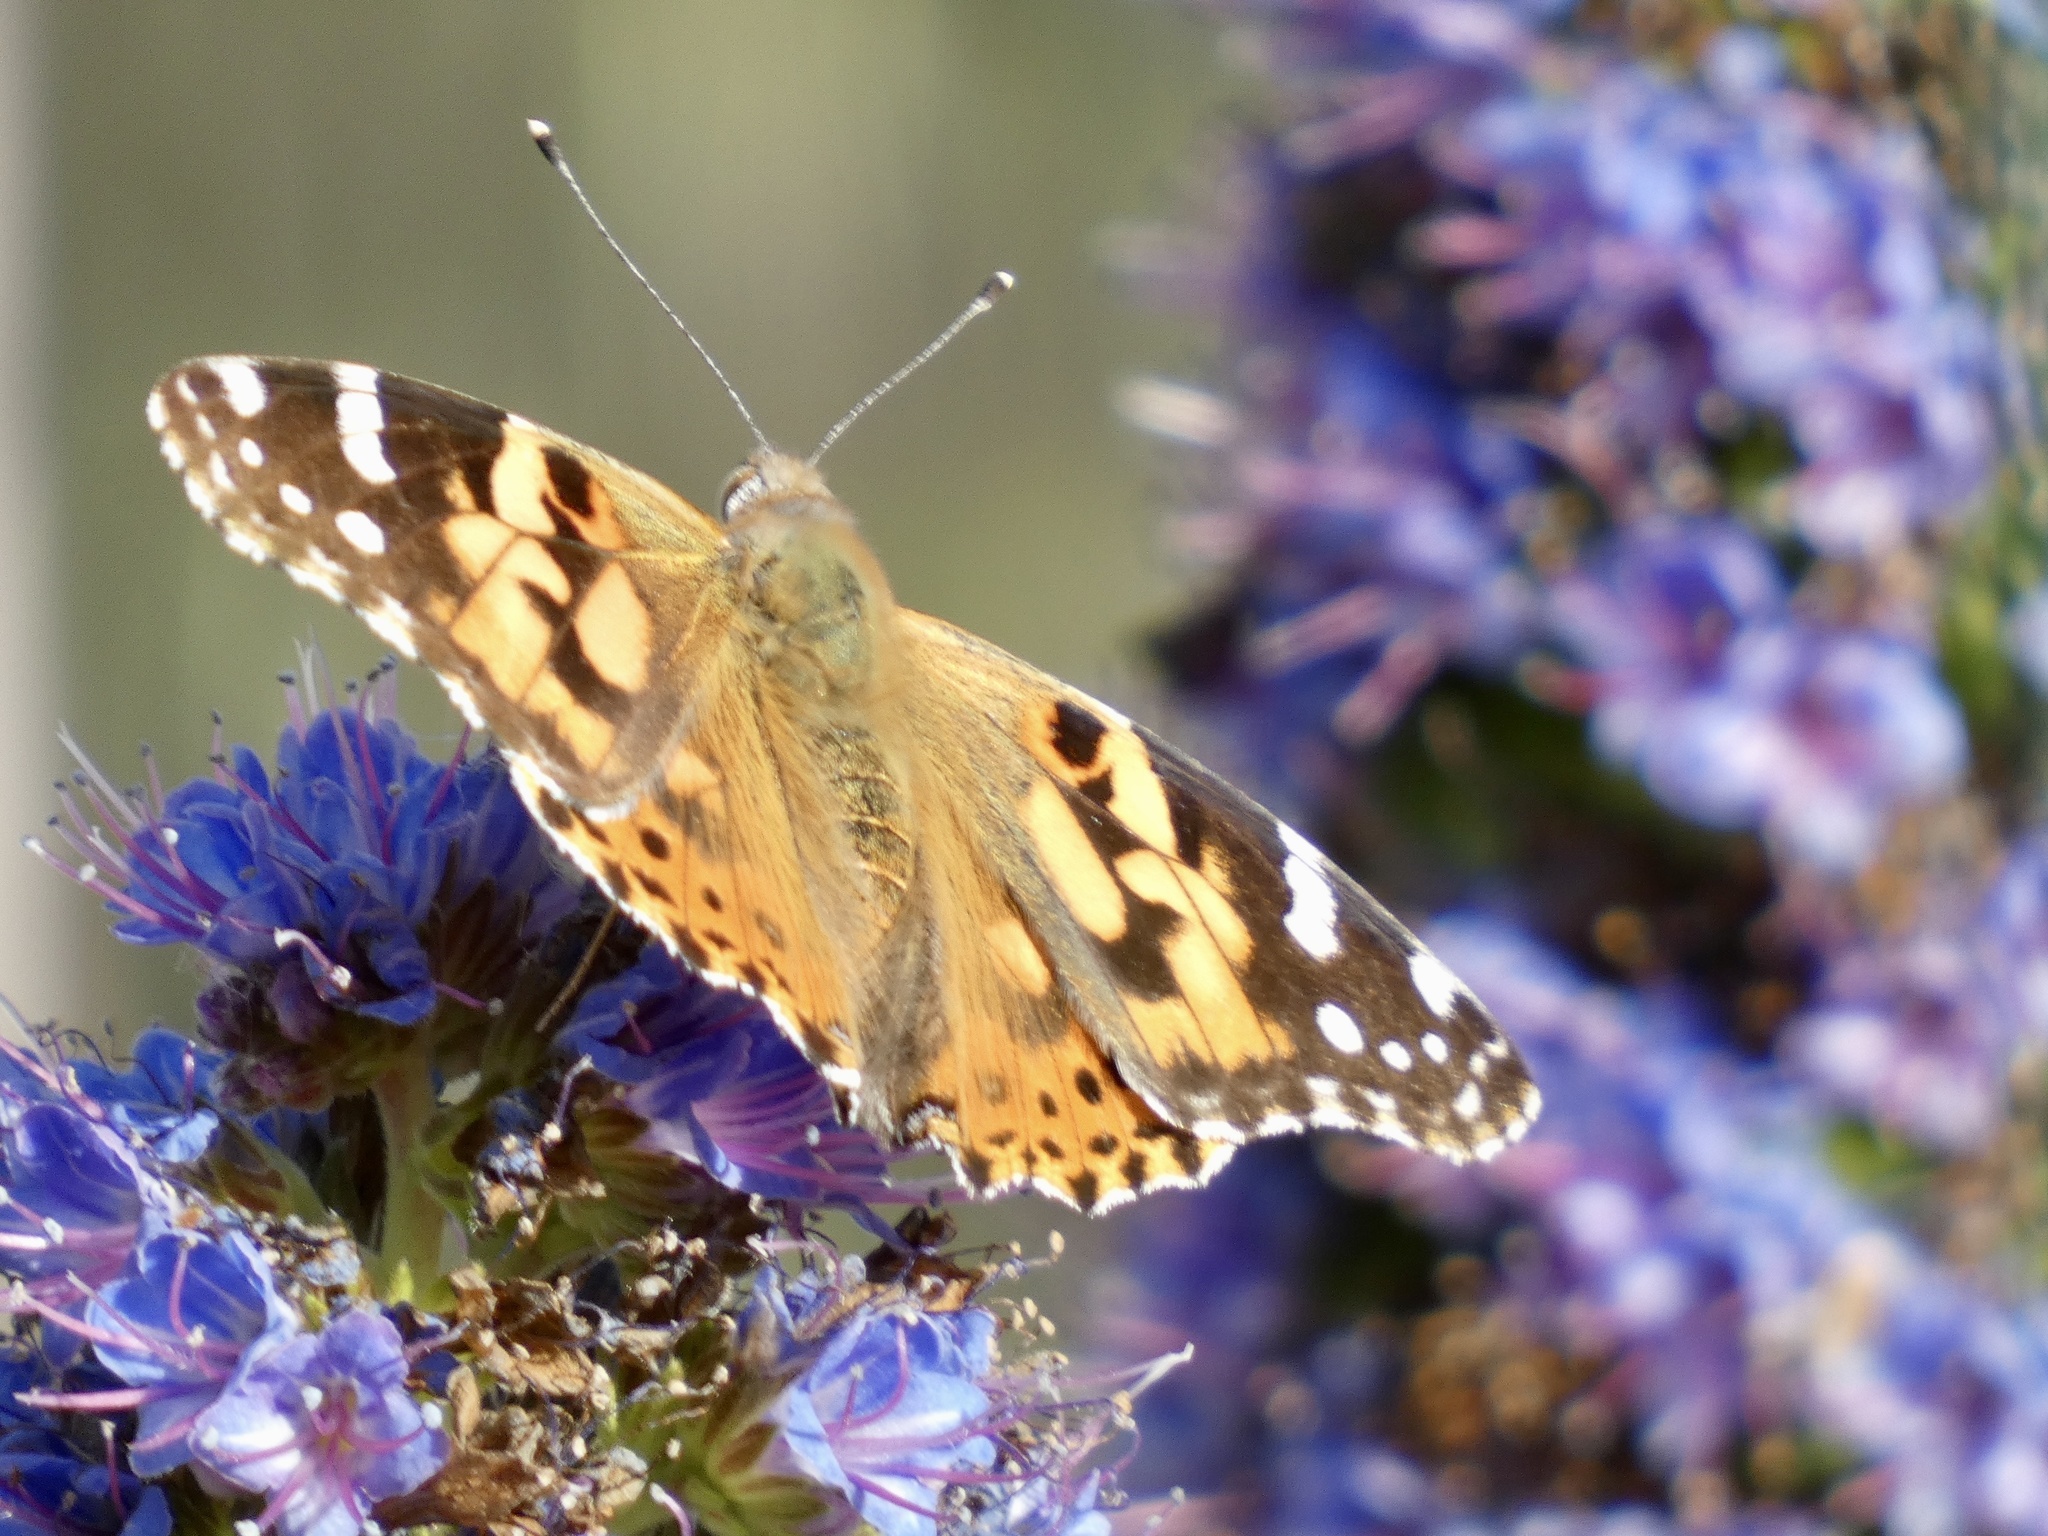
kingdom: Animalia
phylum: Arthropoda
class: Insecta
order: Lepidoptera
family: Nymphalidae
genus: Vanessa
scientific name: Vanessa cardui
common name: Painted lady
